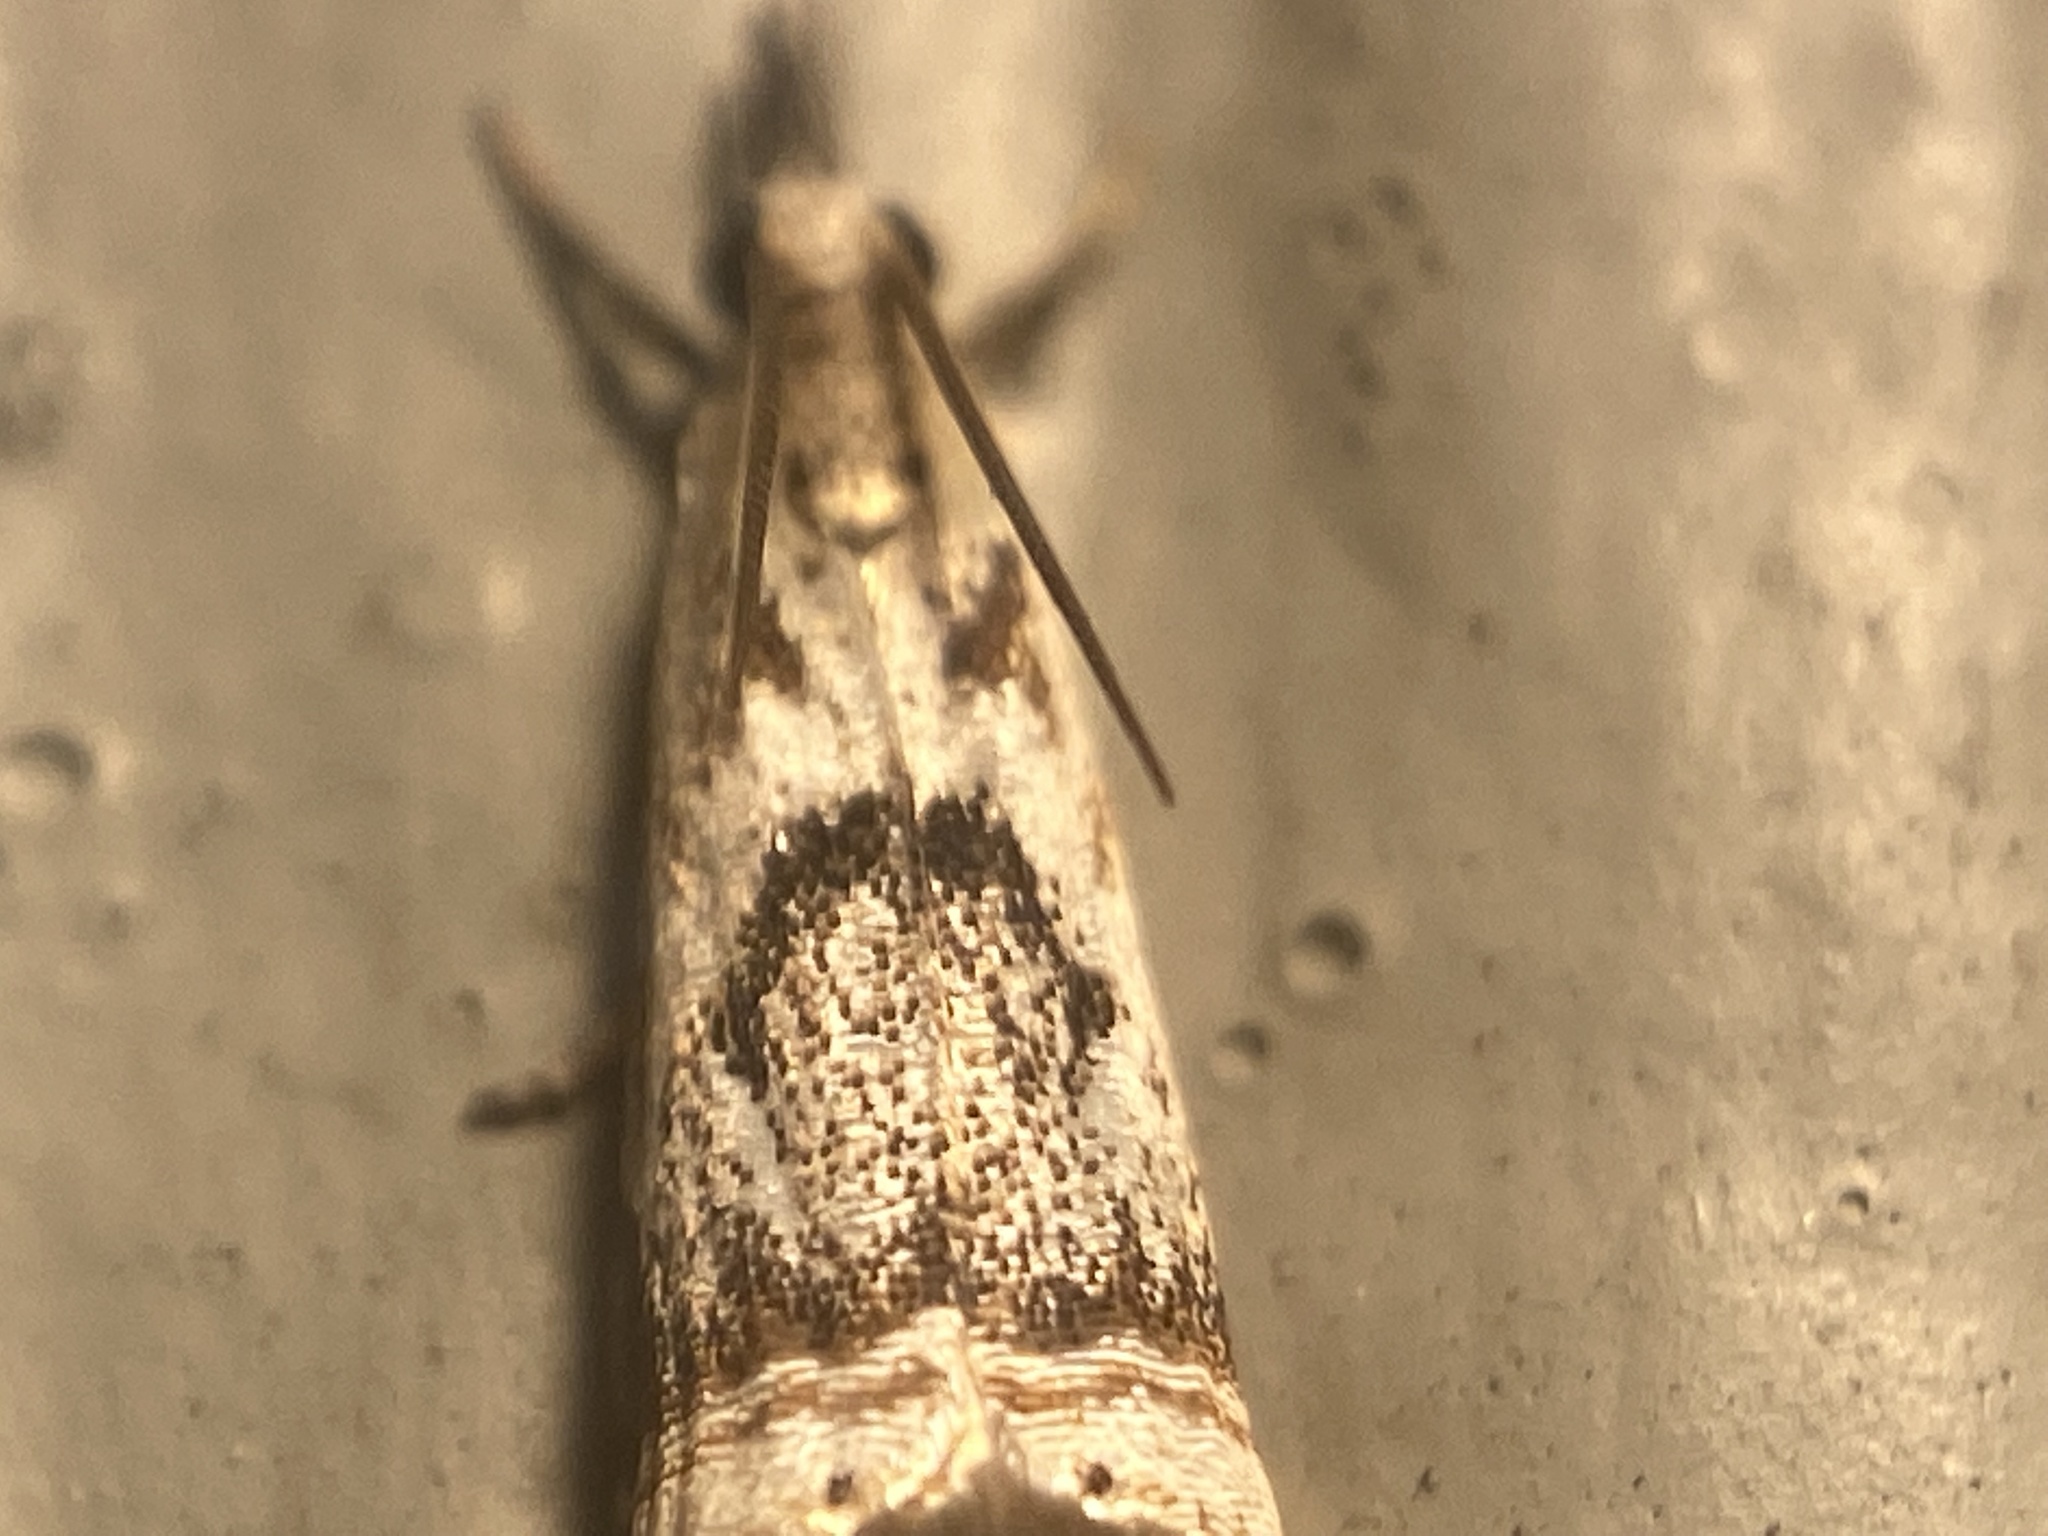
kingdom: Animalia
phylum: Arthropoda
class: Insecta
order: Lepidoptera
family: Crambidae
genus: Microcrambus
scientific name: Microcrambus elegans
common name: Elegant grass-veneer
